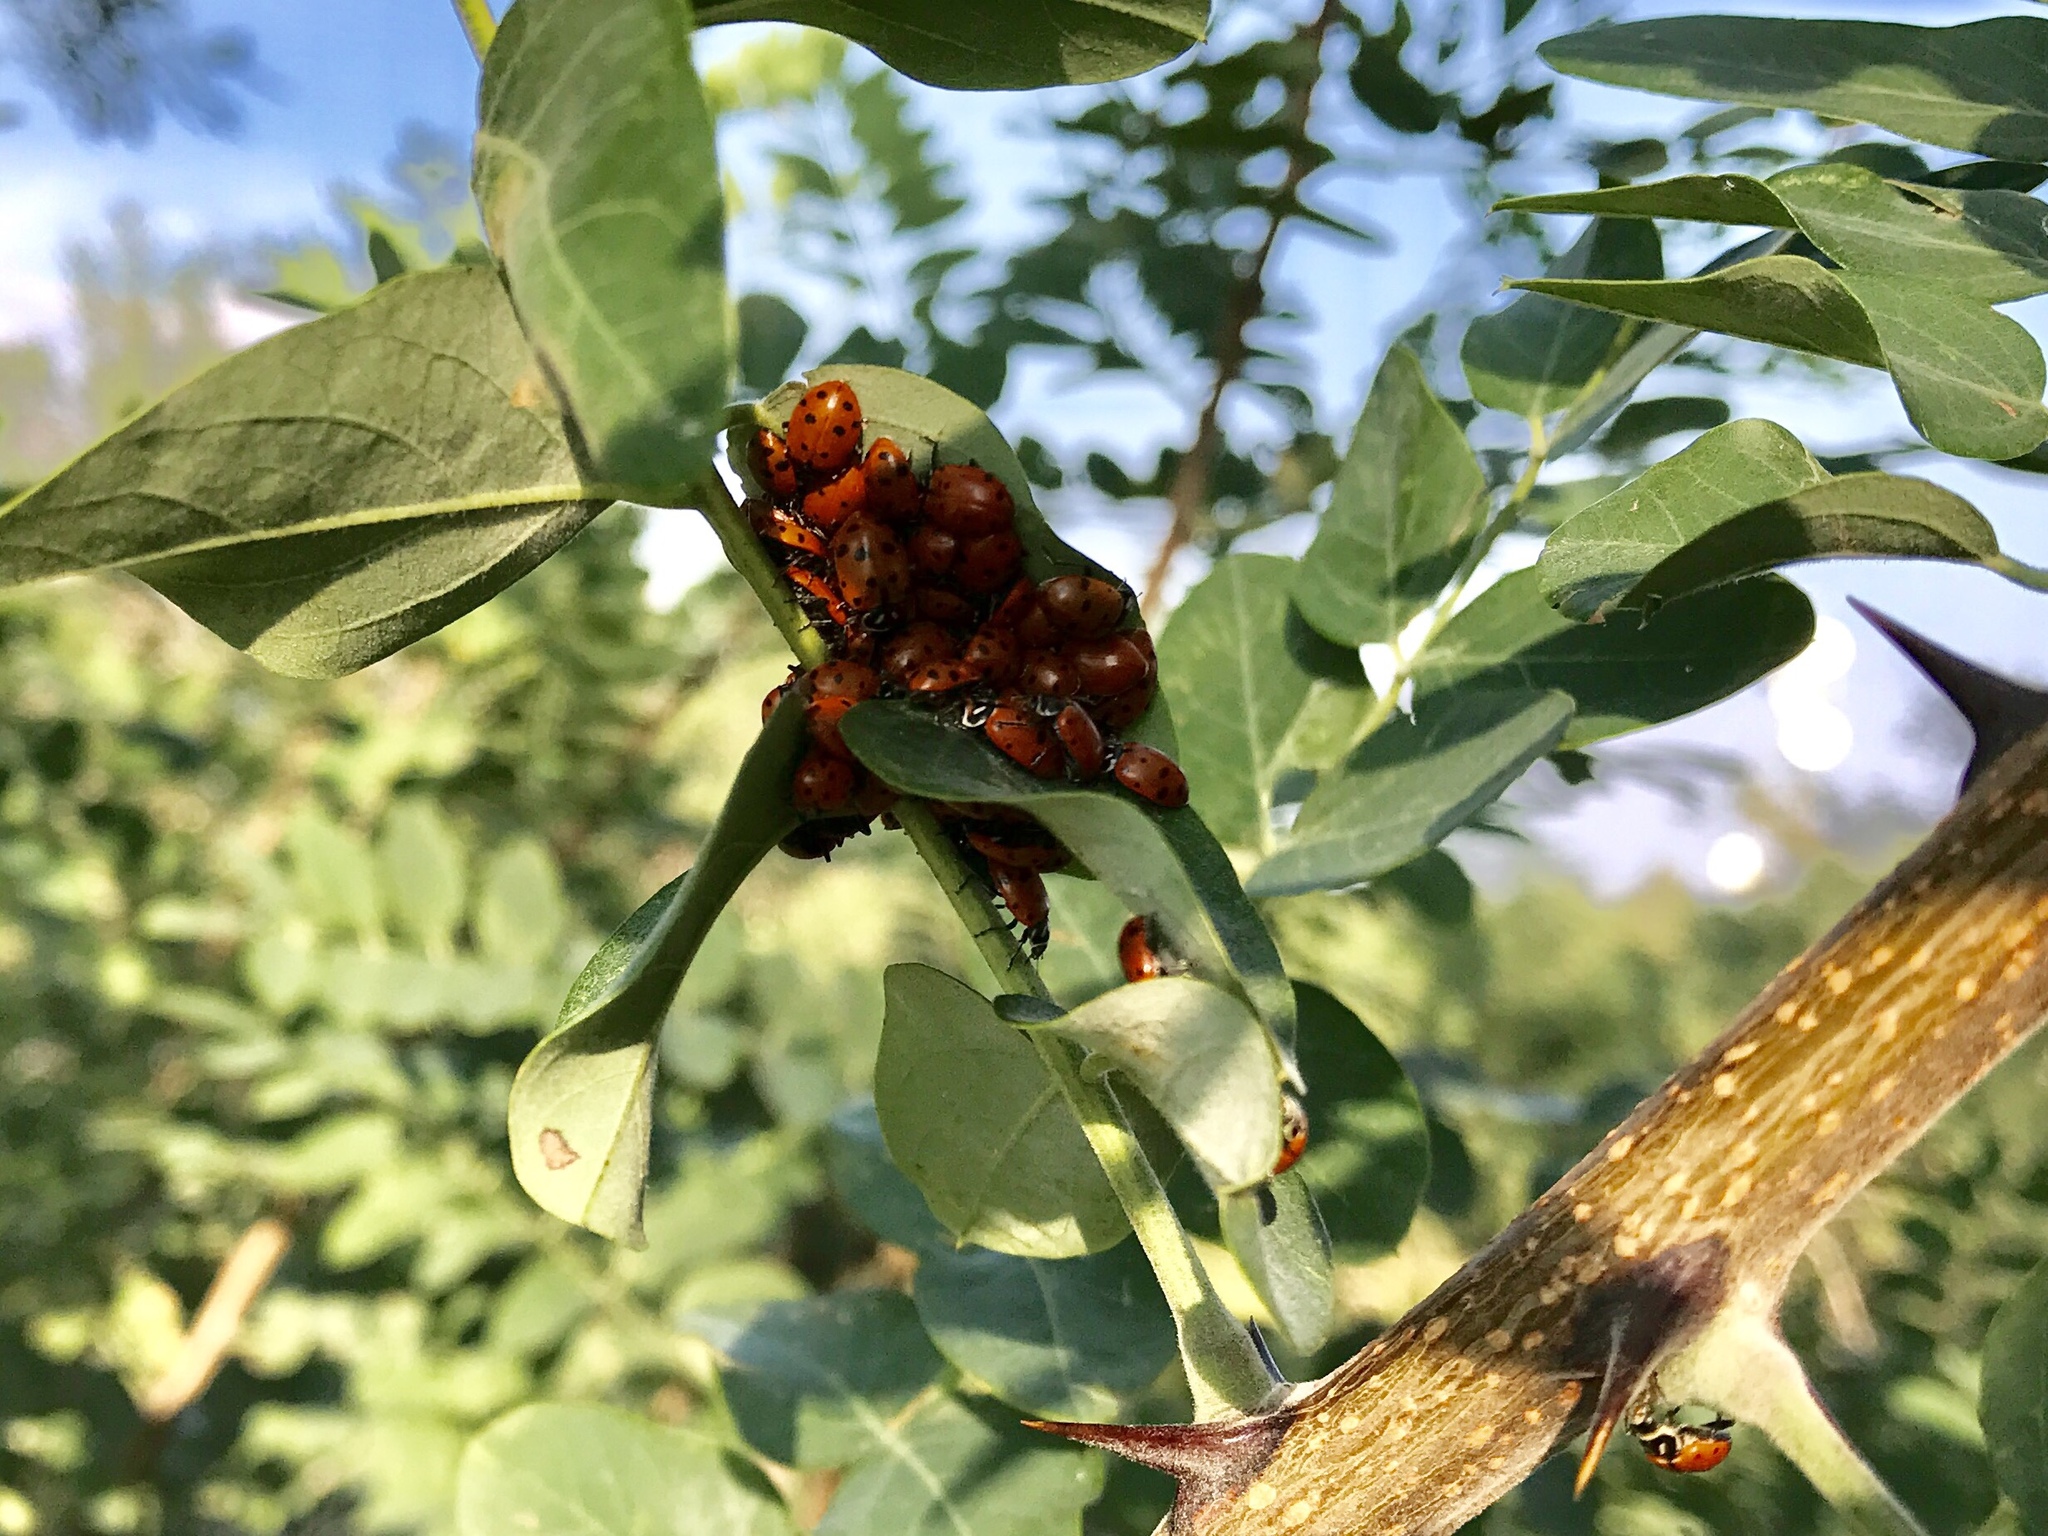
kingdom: Animalia
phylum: Arthropoda
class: Insecta
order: Coleoptera
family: Coccinellidae
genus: Hippodamia
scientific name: Hippodamia convergens
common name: Convergent lady beetle
